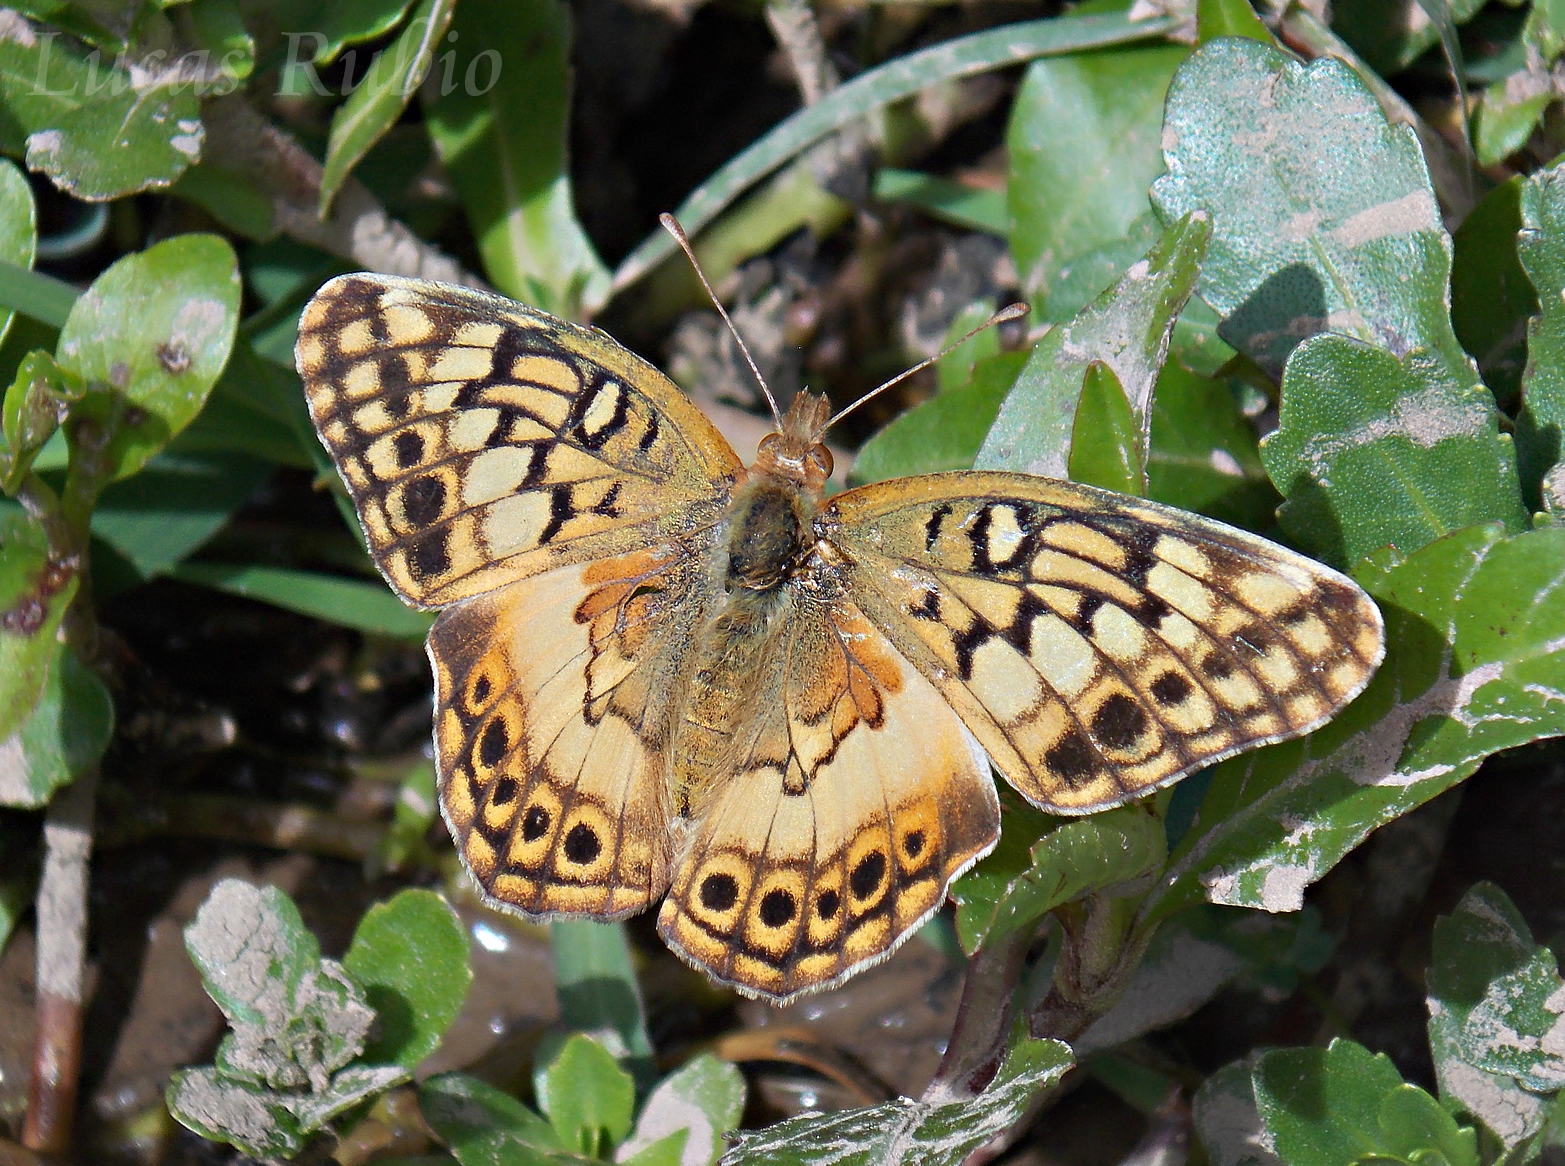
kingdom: Animalia
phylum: Arthropoda
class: Insecta
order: Lepidoptera
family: Nymphalidae
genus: Euptoieta
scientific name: Euptoieta hortensia
